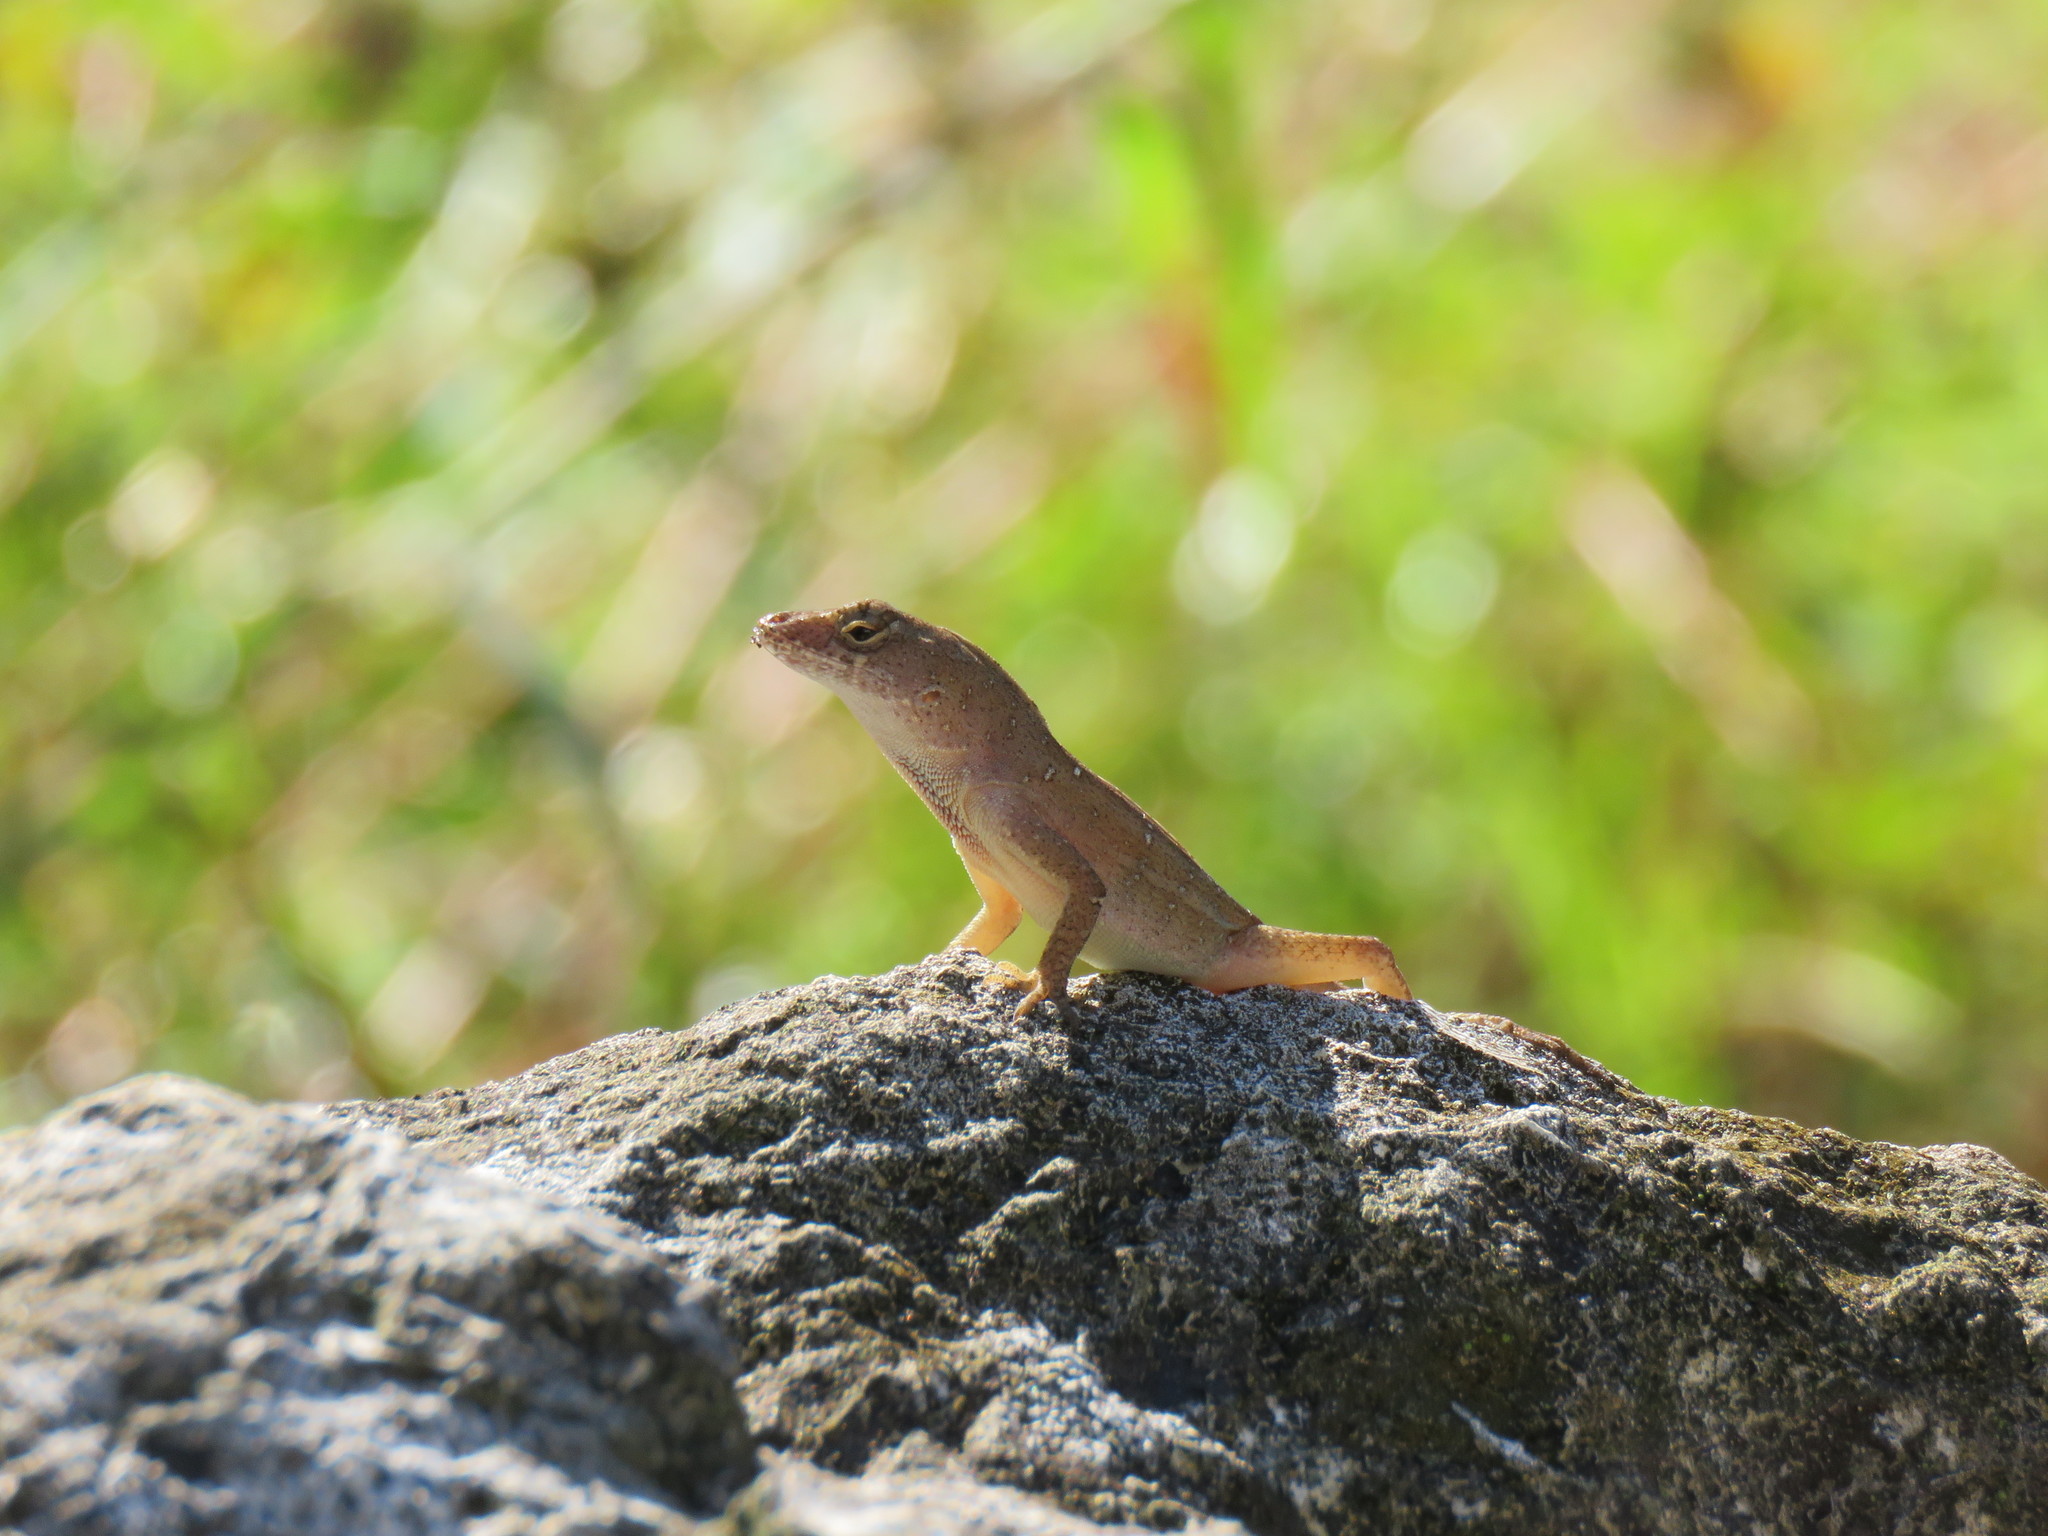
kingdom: Animalia
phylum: Chordata
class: Squamata
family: Dactyloidae
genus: Anolis
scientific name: Anolis sagrei
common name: Brown anole
